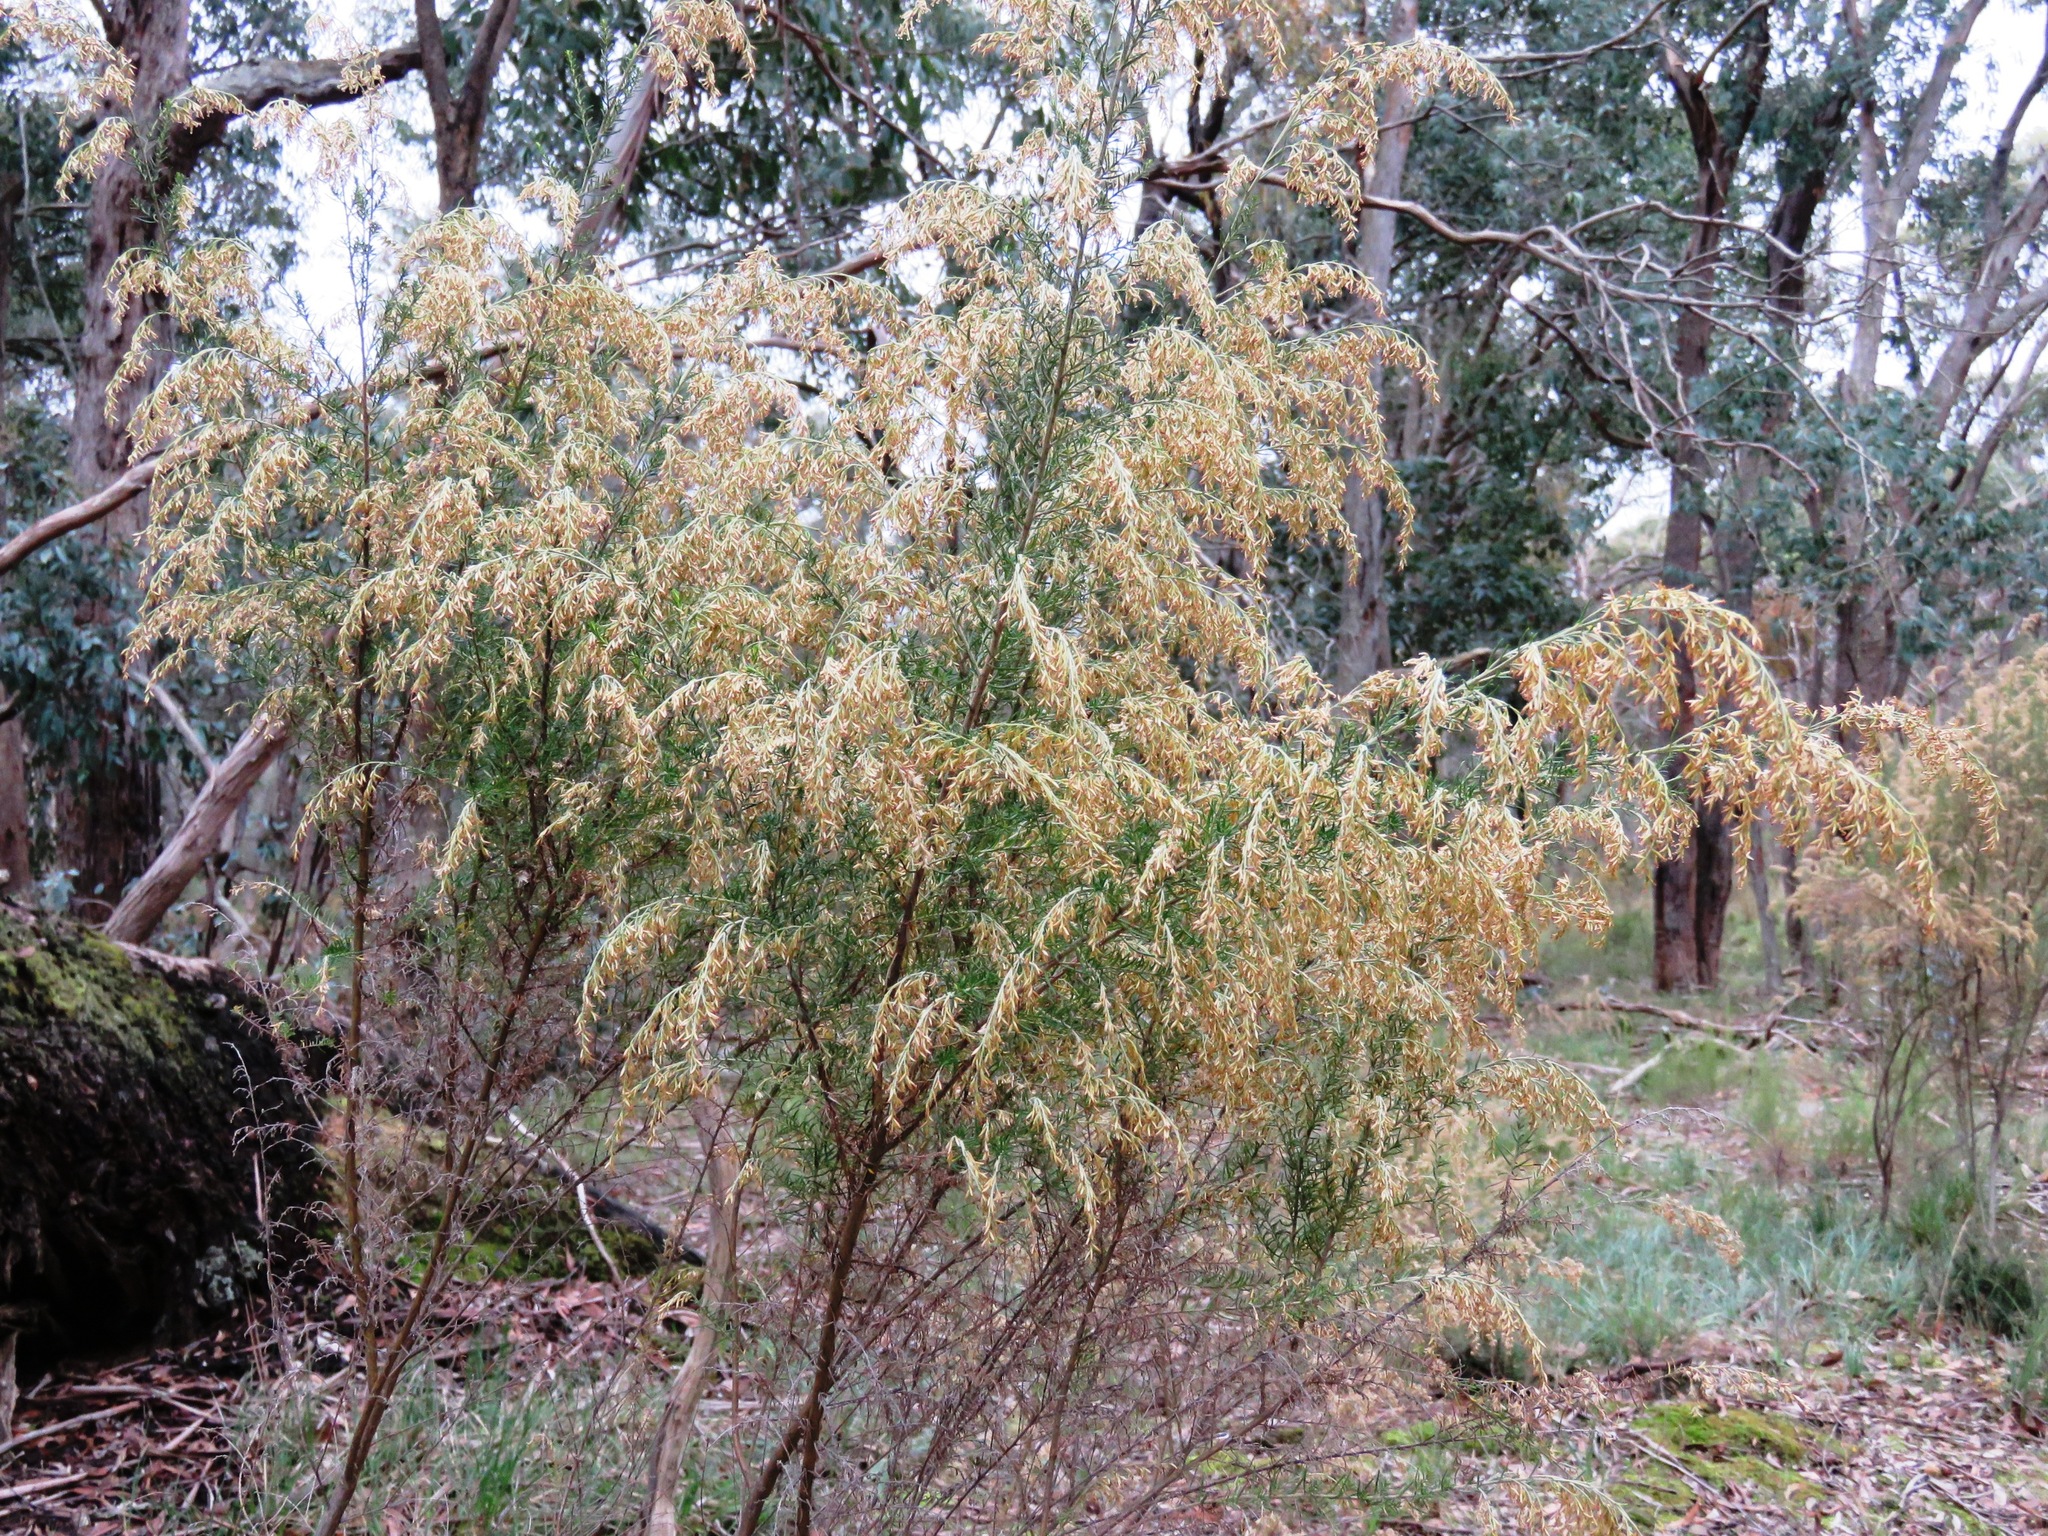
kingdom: Plantae
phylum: Tracheophyta
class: Magnoliopsida
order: Asterales
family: Asteraceae
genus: Cassinia
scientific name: Cassinia sifton
